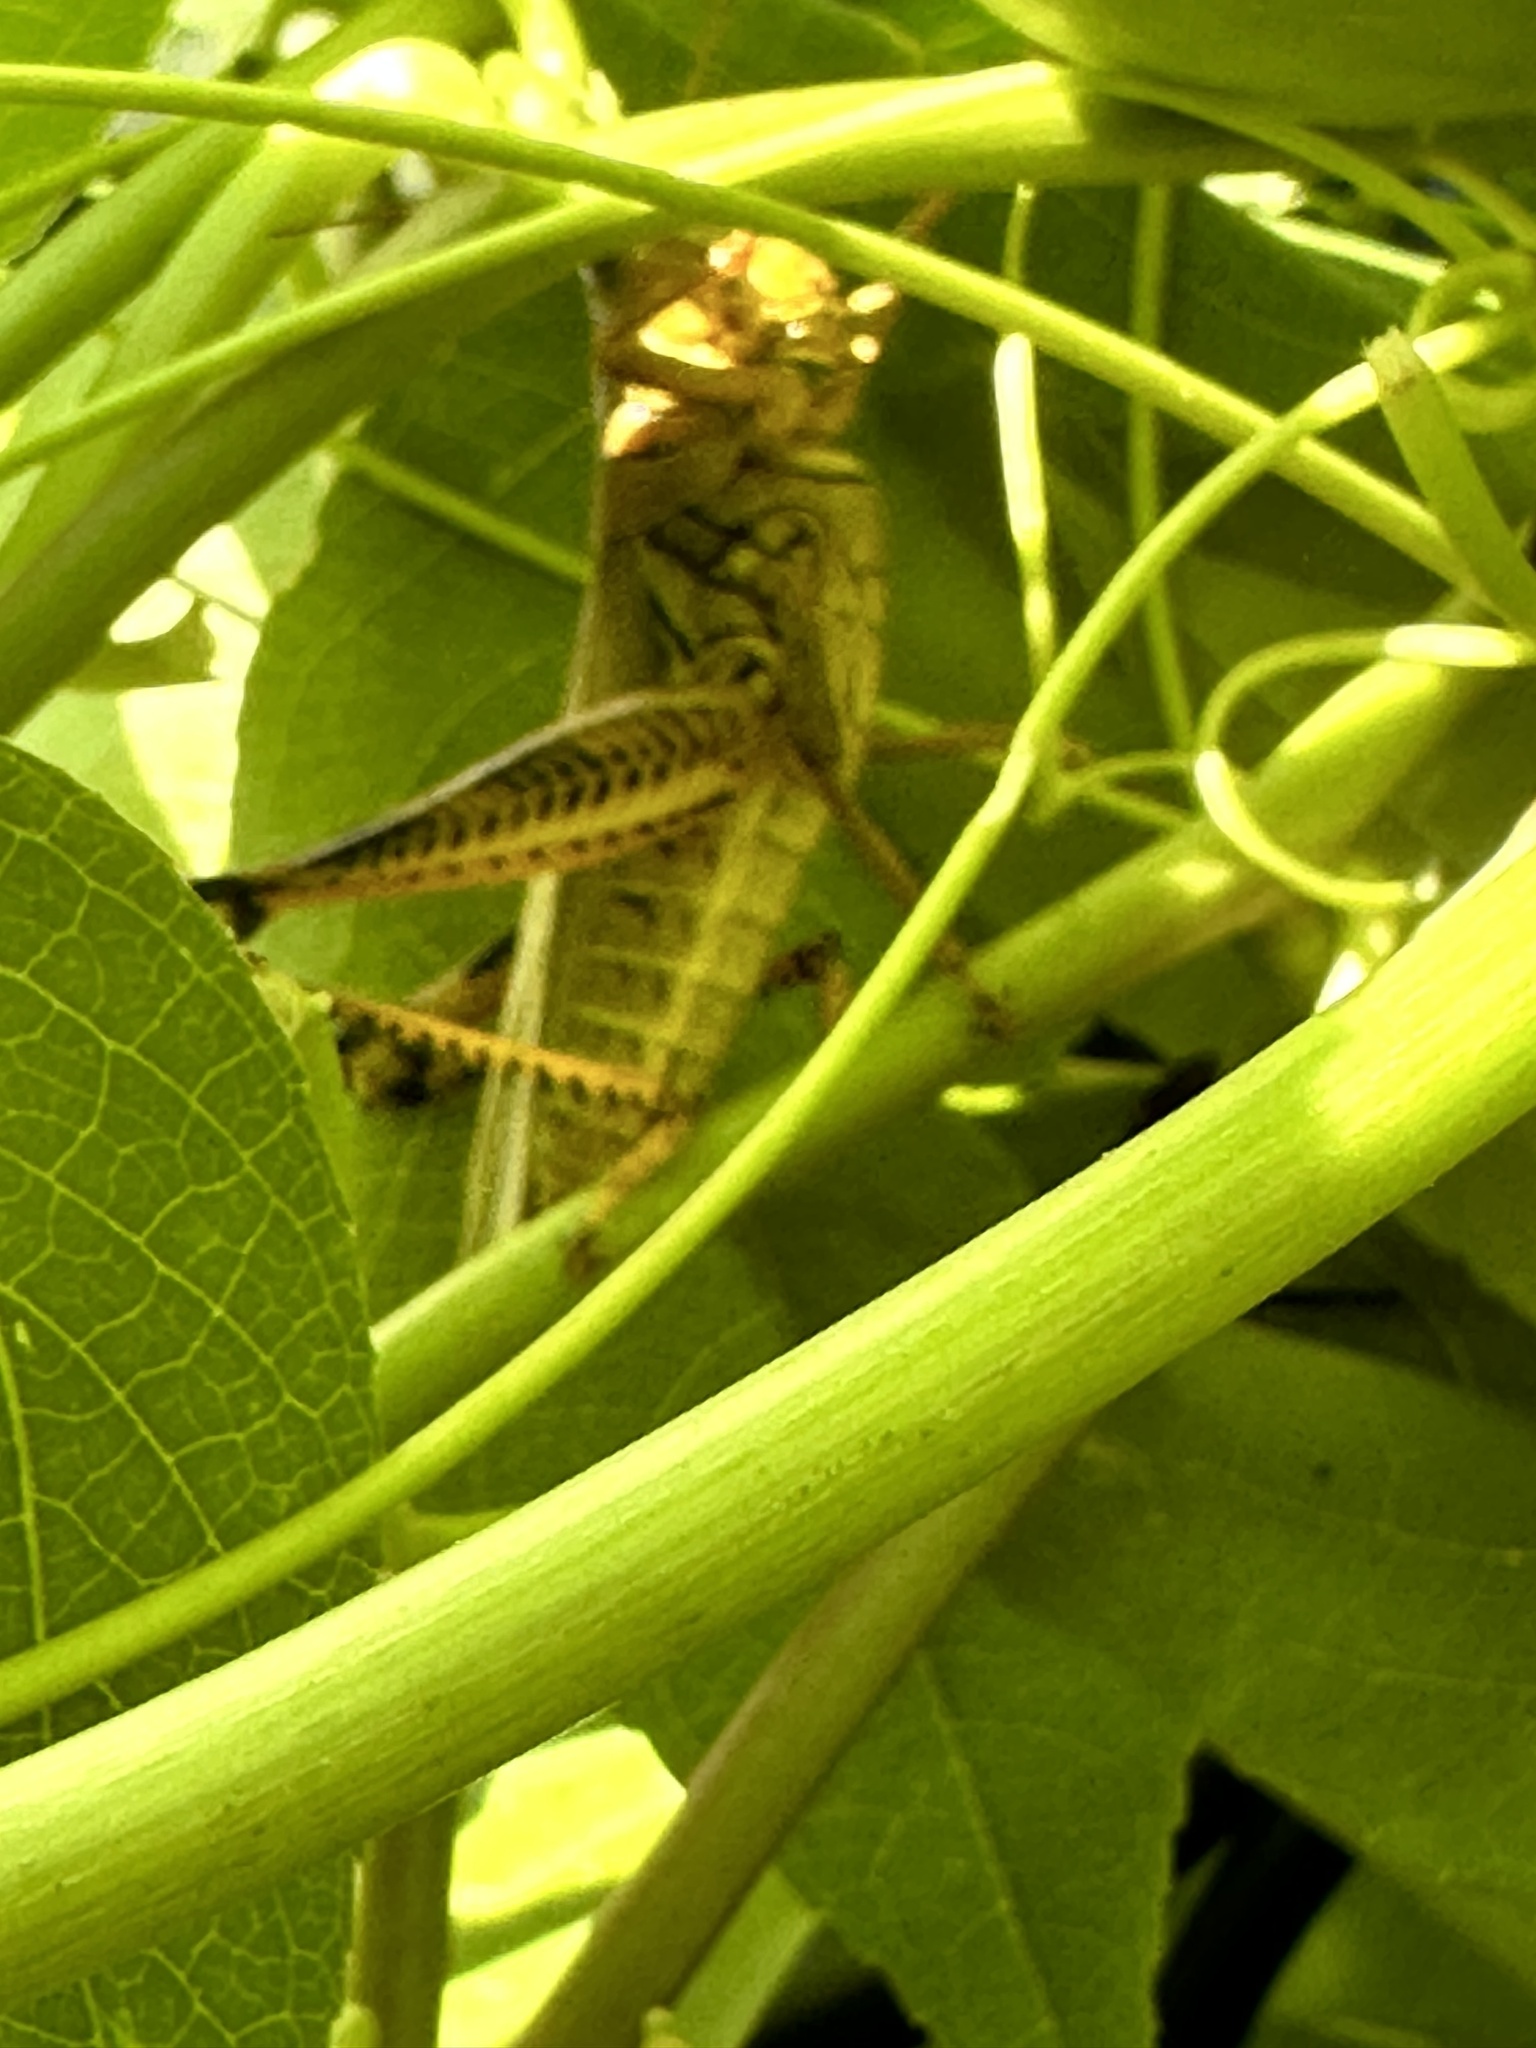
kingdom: Animalia
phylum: Arthropoda
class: Insecta
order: Orthoptera
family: Acrididae
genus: Melanoplus
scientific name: Melanoplus differentialis
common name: Differential grasshopper
